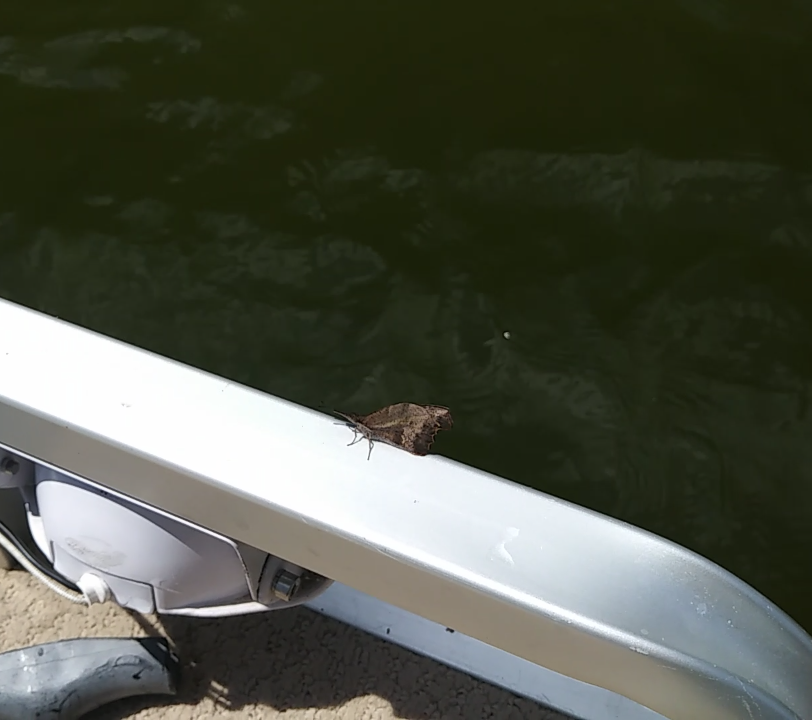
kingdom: Animalia
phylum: Arthropoda
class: Insecta
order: Lepidoptera
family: Nymphalidae
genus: Libytheana
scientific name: Libytheana carinenta
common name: American snout
